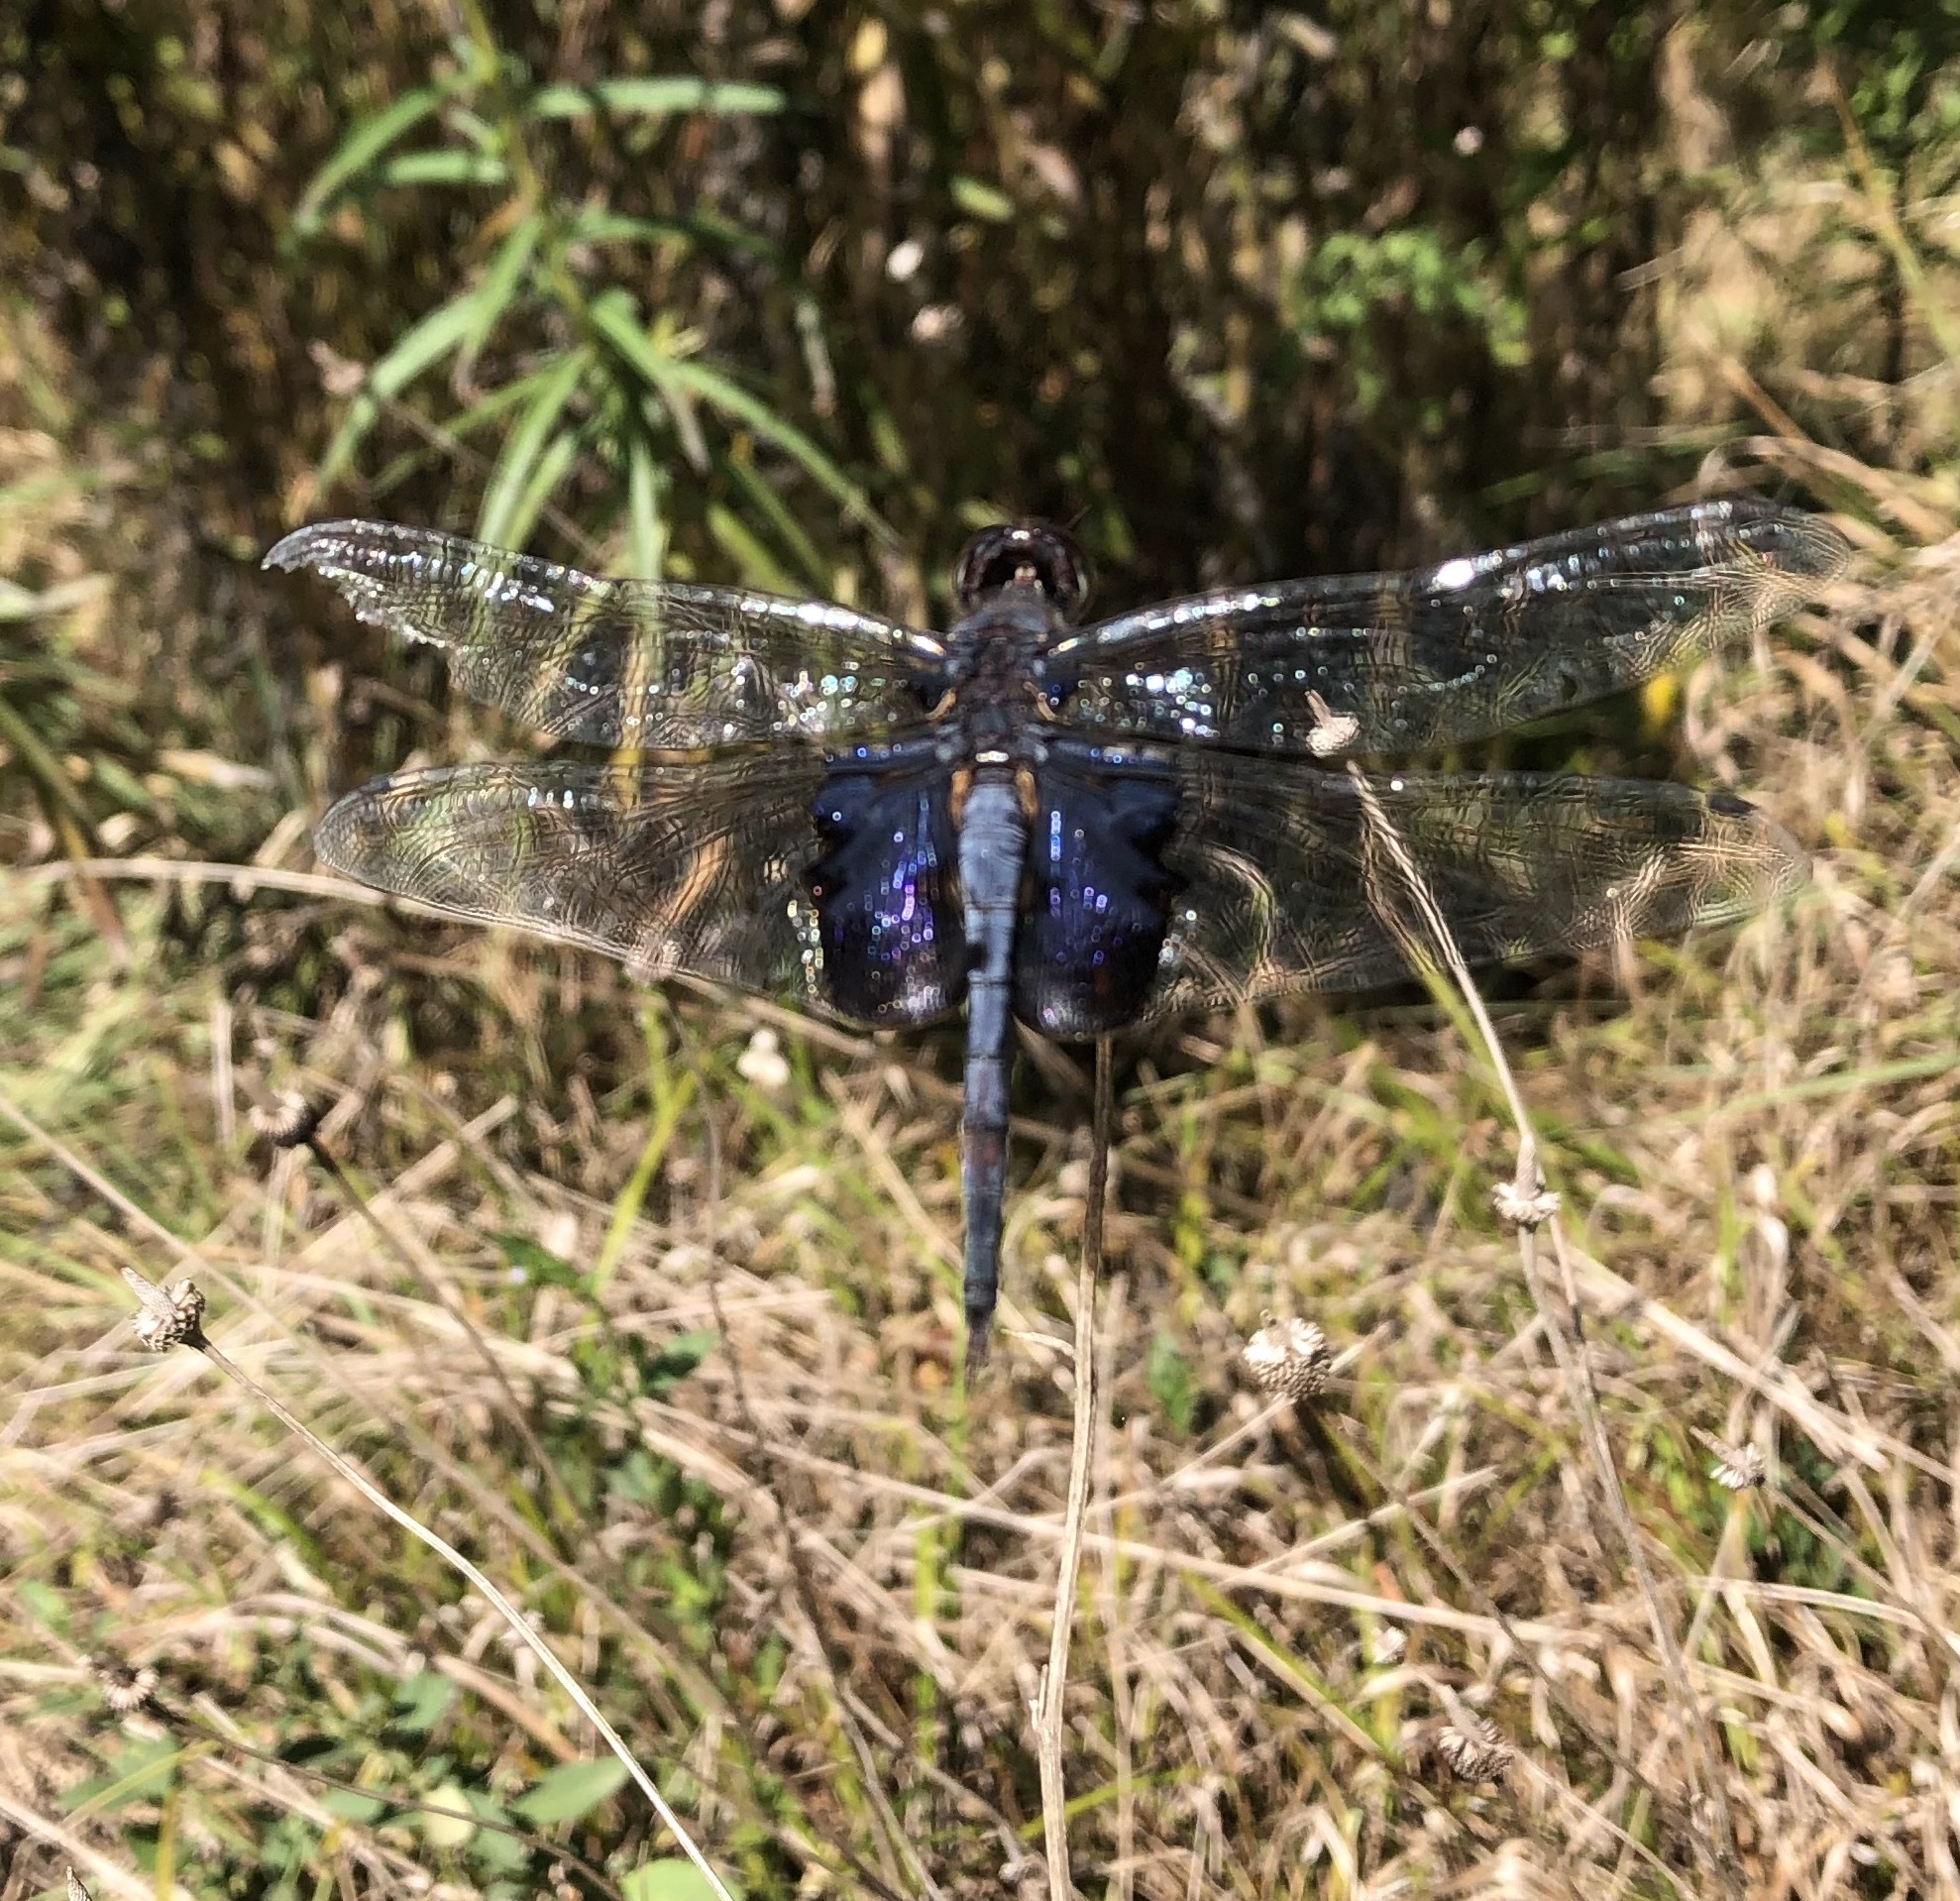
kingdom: Animalia
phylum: Arthropoda
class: Insecta
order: Odonata
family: Libellulidae
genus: Tramea
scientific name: Tramea lacerata
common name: Black saddlebags
